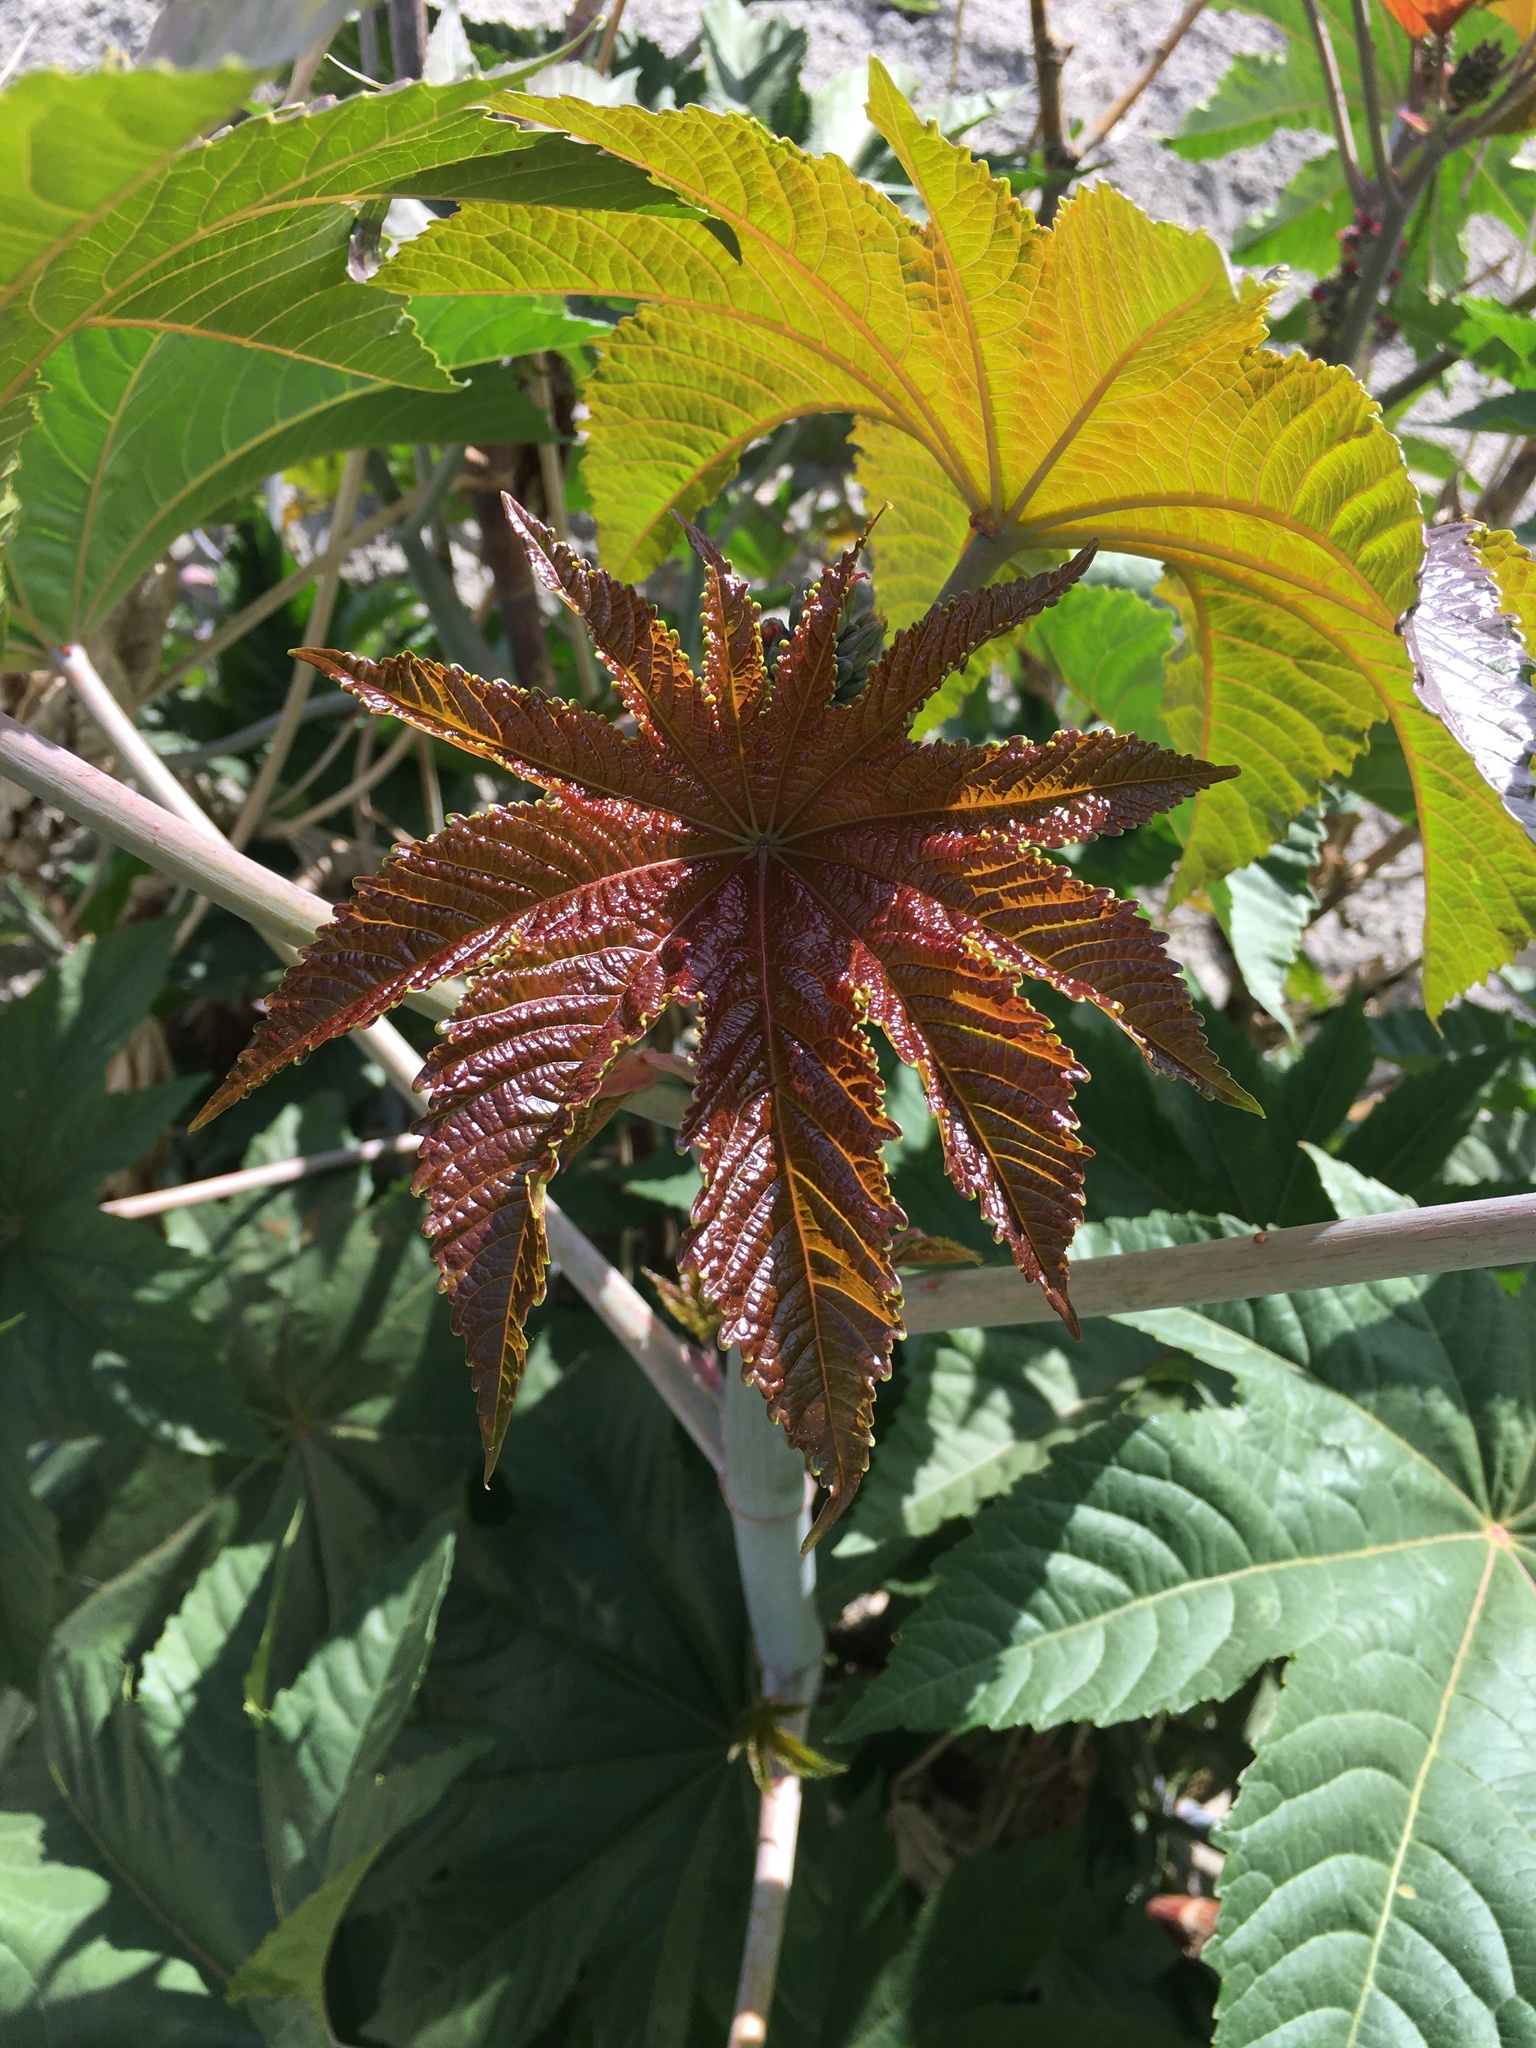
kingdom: Plantae
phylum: Tracheophyta
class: Magnoliopsida
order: Malpighiales
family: Euphorbiaceae
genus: Ricinus
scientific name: Ricinus communis
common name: Castor-oil-plant
